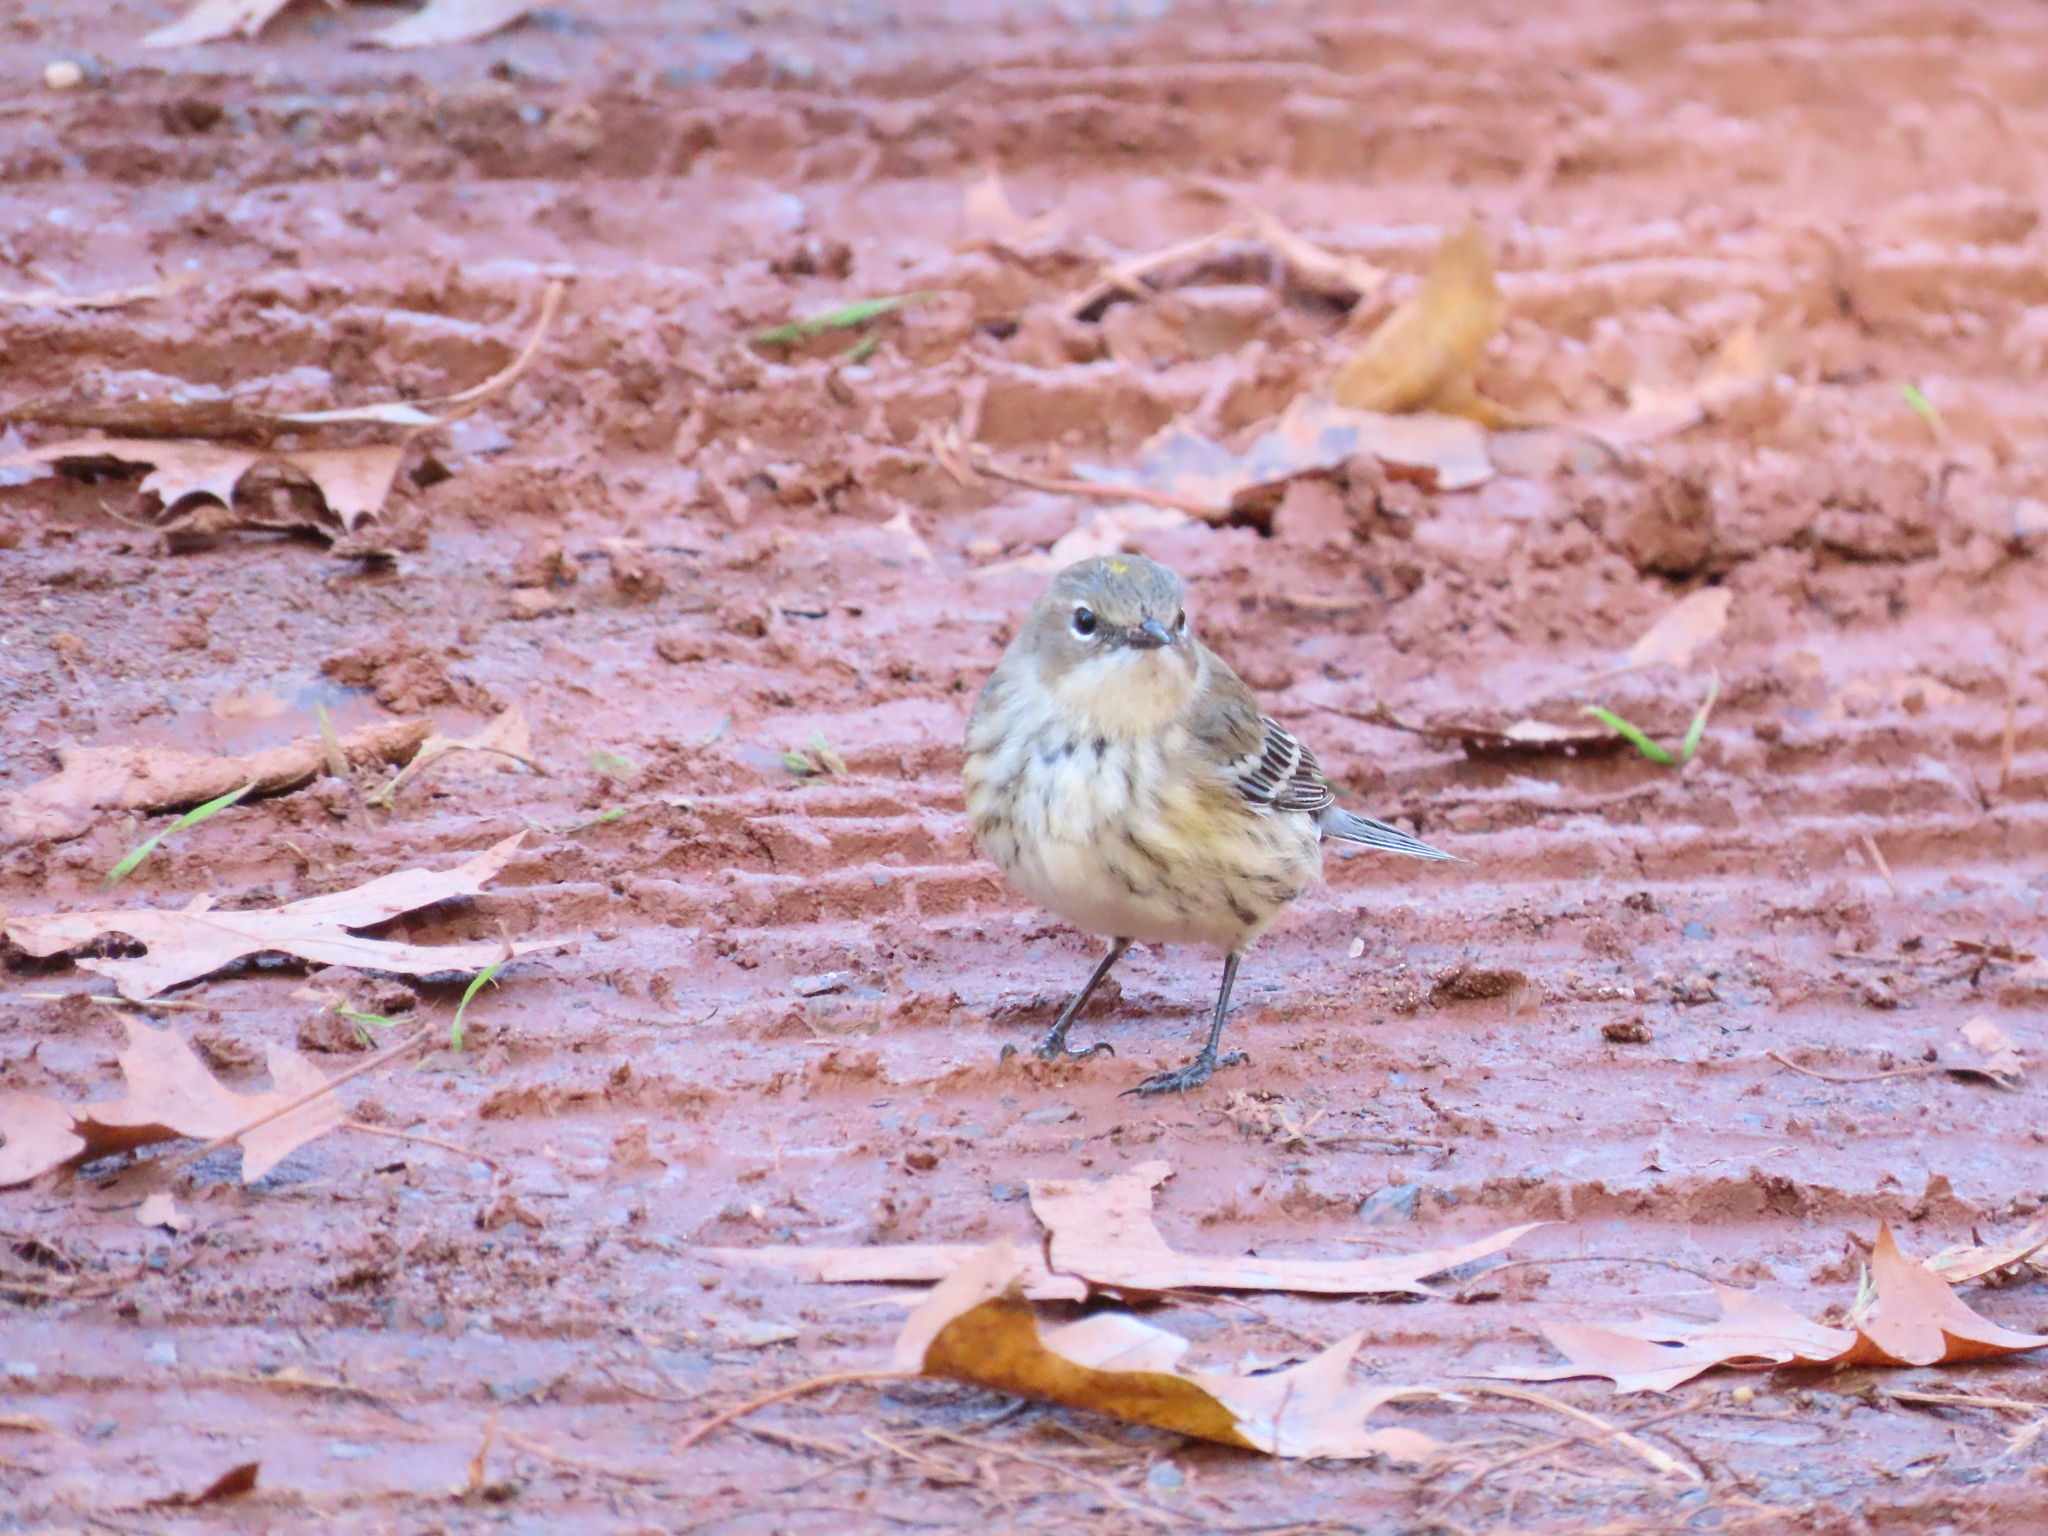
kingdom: Animalia
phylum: Chordata
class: Aves
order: Passeriformes
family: Parulidae
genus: Setophaga
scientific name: Setophaga coronata
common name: Myrtle warbler
